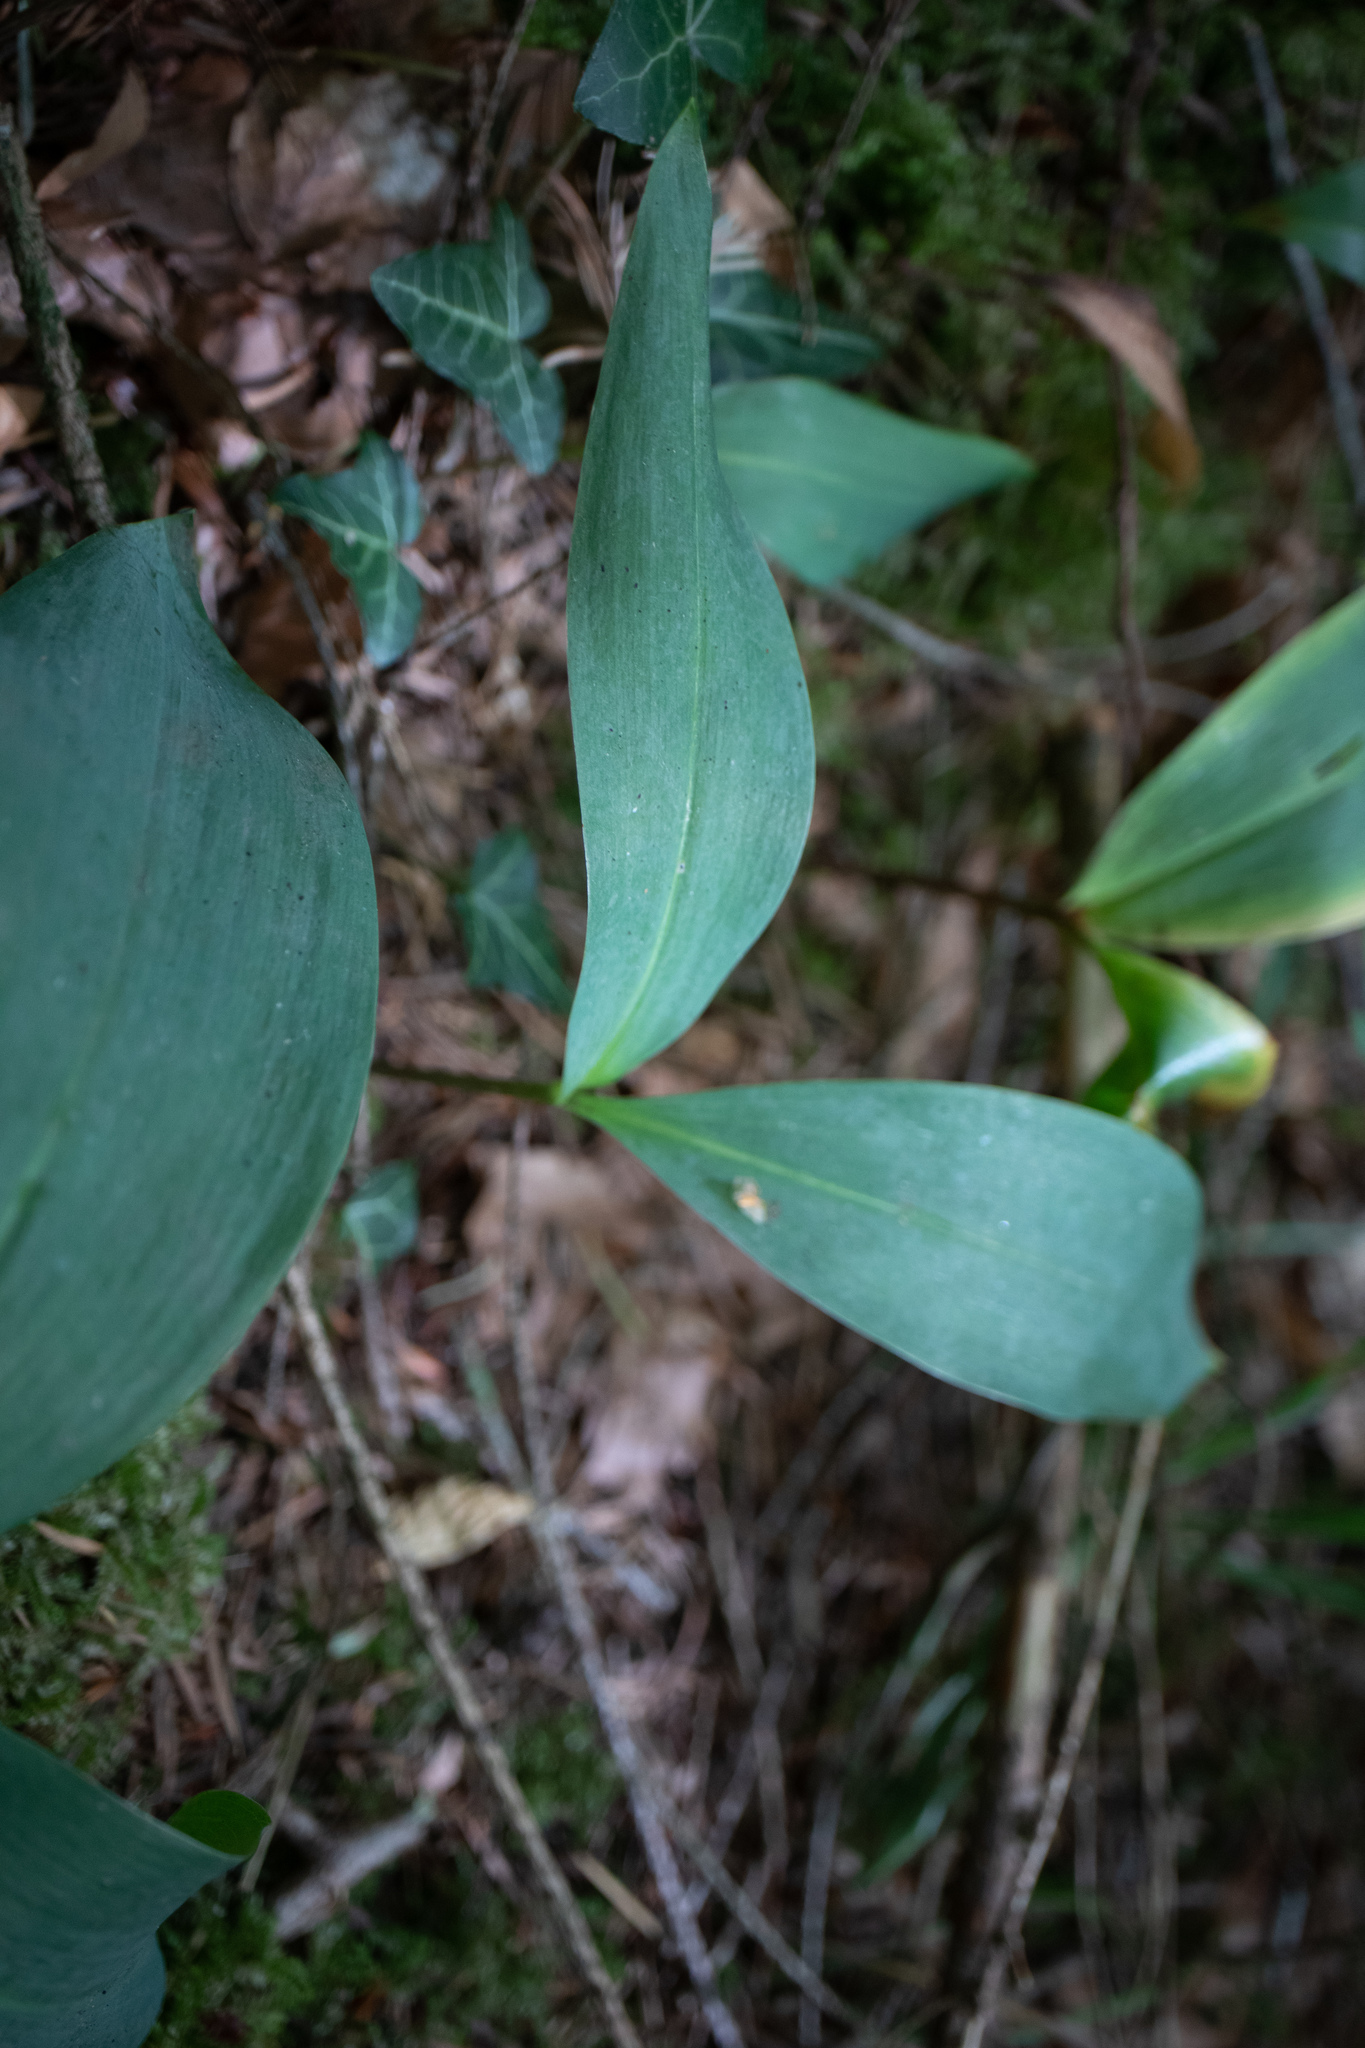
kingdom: Plantae
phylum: Tracheophyta
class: Liliopsida
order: Asparagales
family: Asparagaceae
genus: Convallaria
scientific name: Convallaria majalis
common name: Lily-of-the-valley
